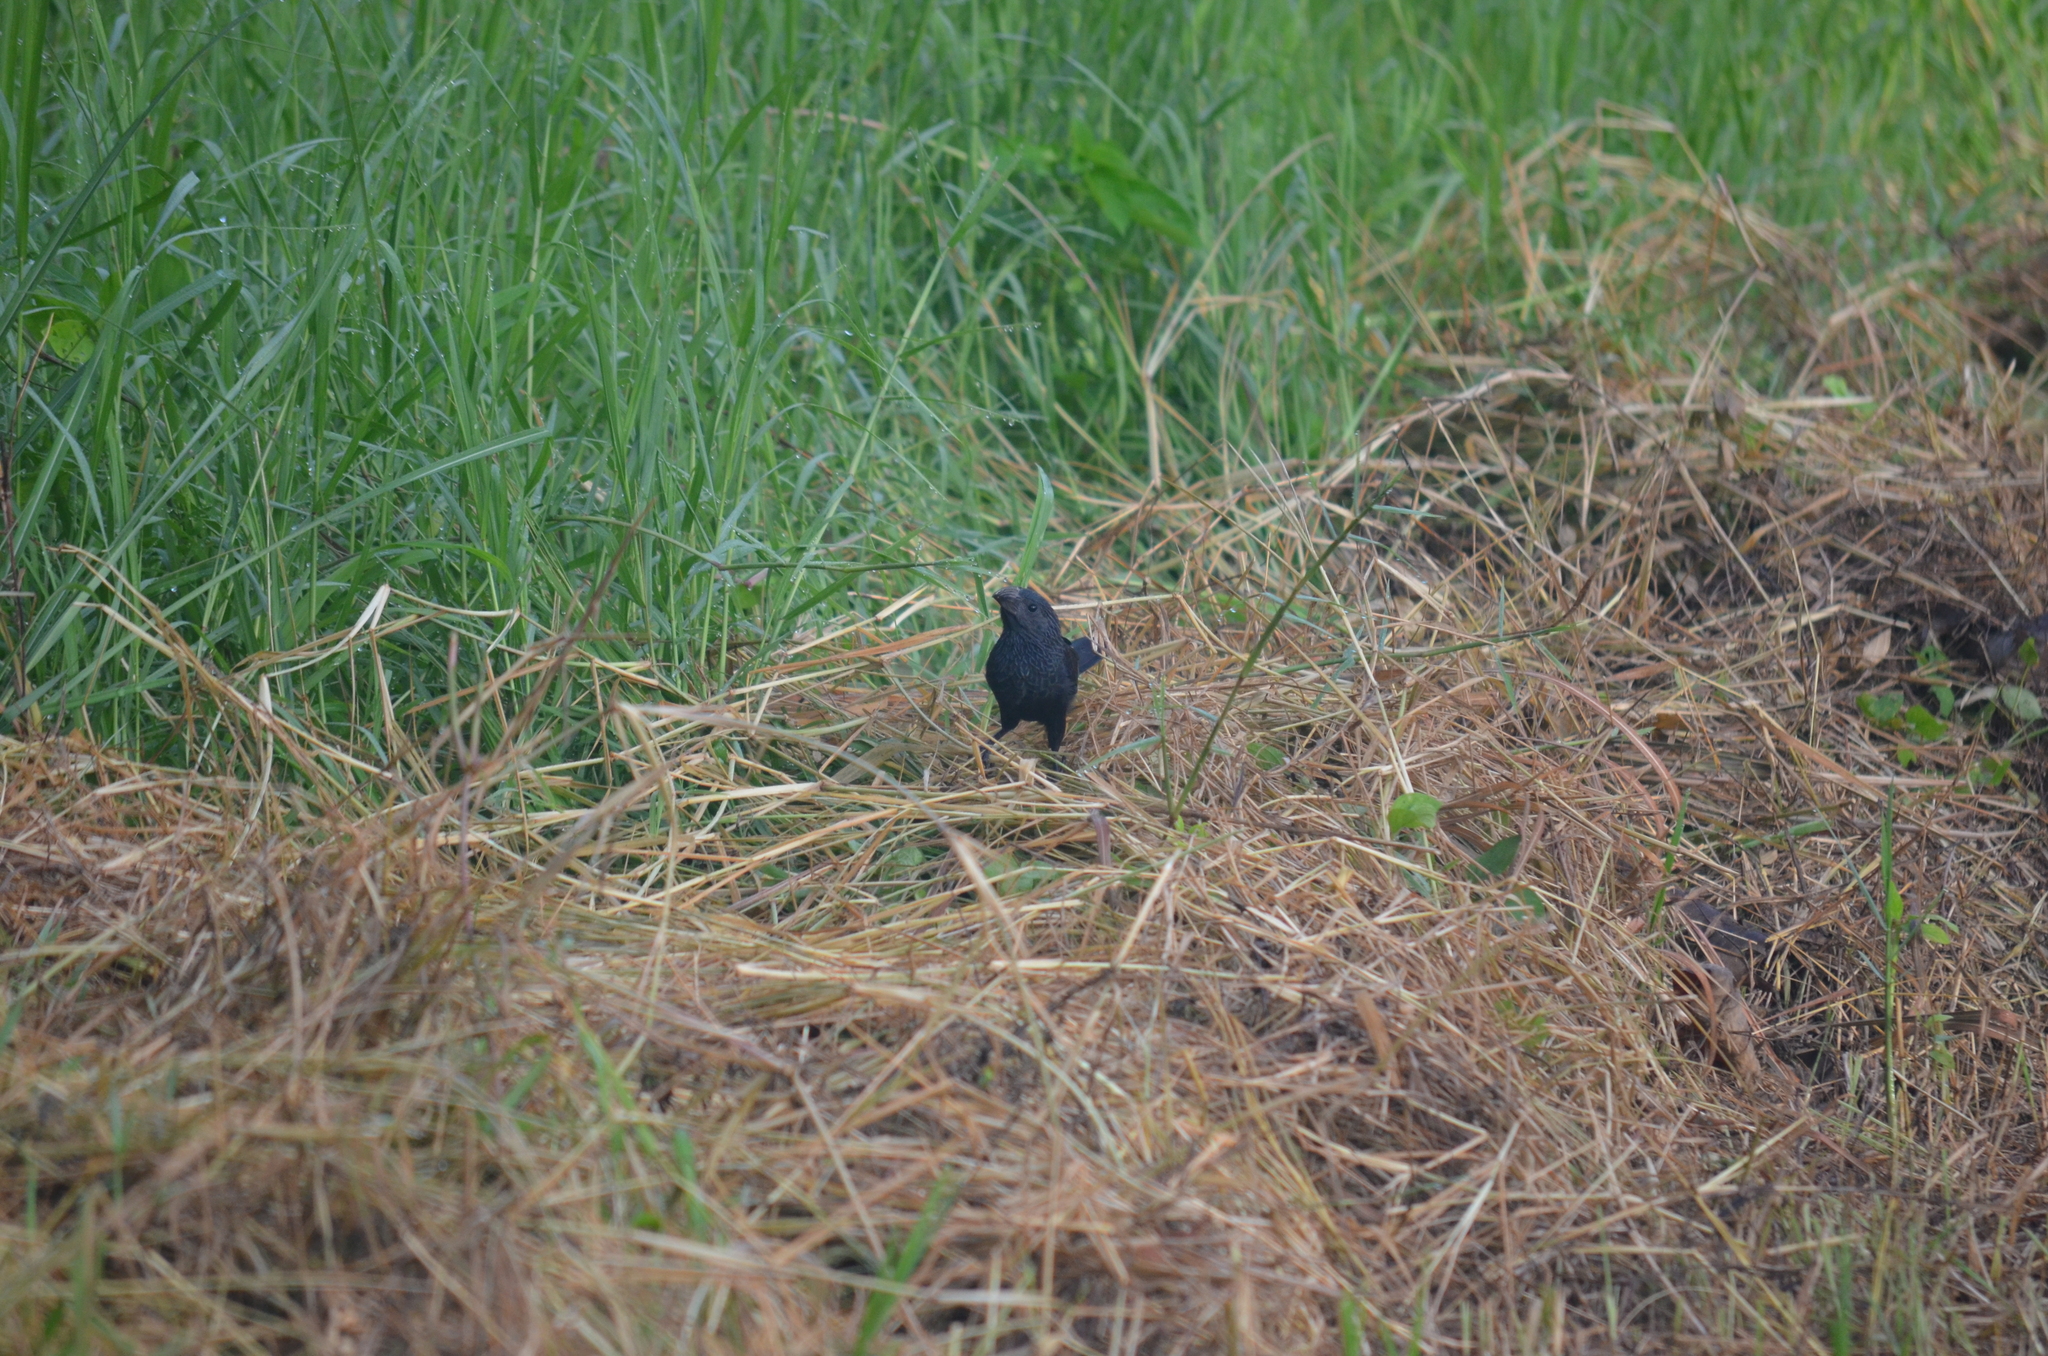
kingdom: Animalia
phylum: Chordata
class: Aves
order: Cuculiformes
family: Cuculidae
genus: Crotophaga
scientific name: Crotophaga sulcirostris
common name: Groove-billed ani
